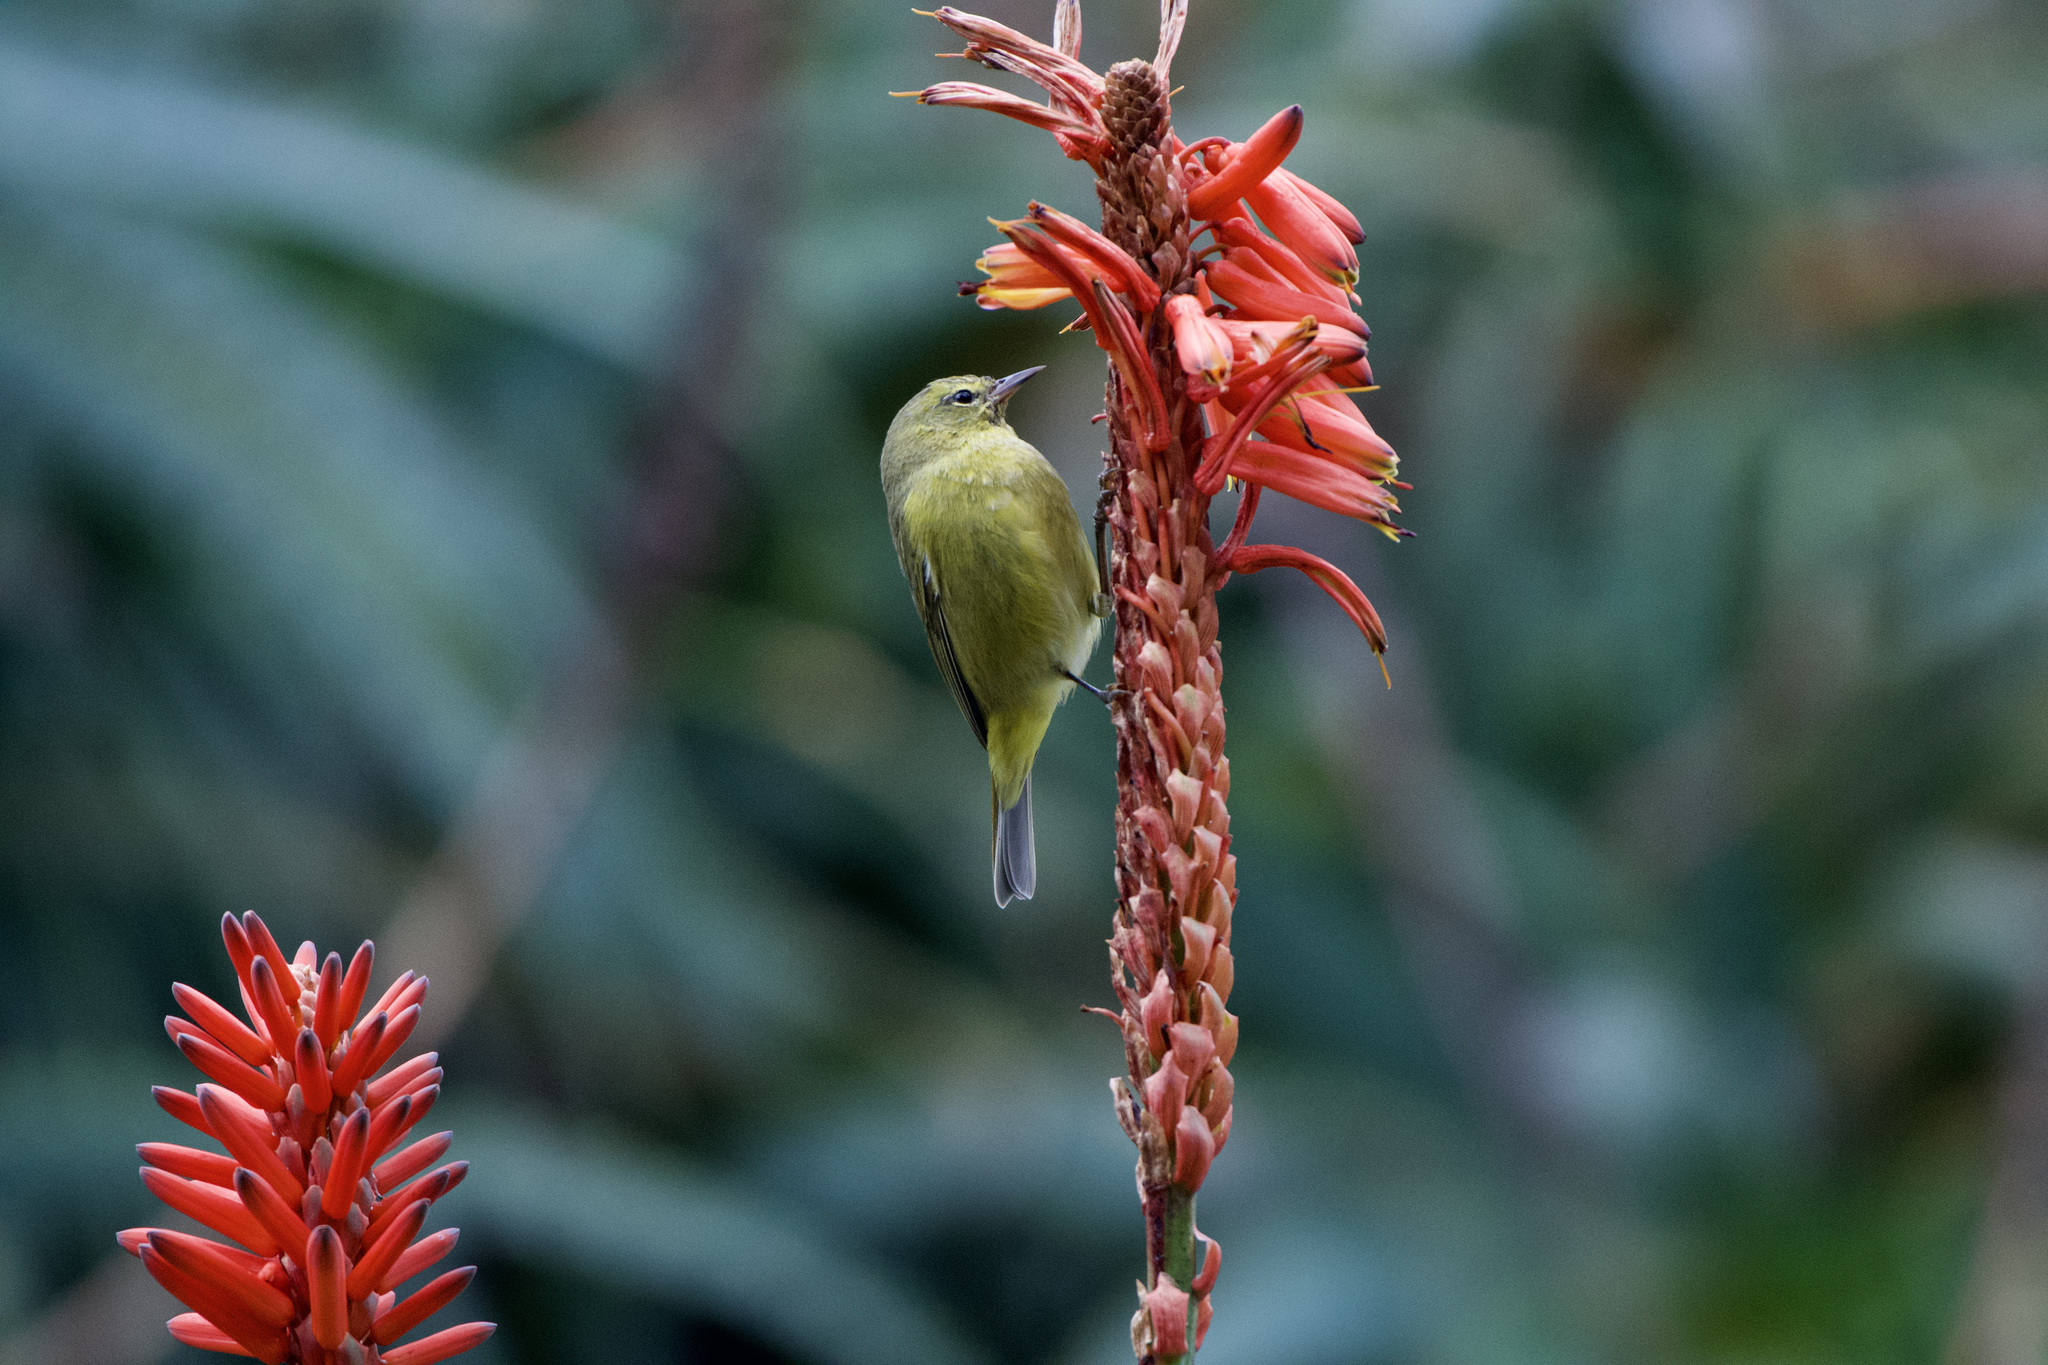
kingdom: Animalia
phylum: Chordata
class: Aves
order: Passeriformes
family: Parulidae
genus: Leiothlypis
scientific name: Leiothlypis celata
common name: Orange-crowned warbler
